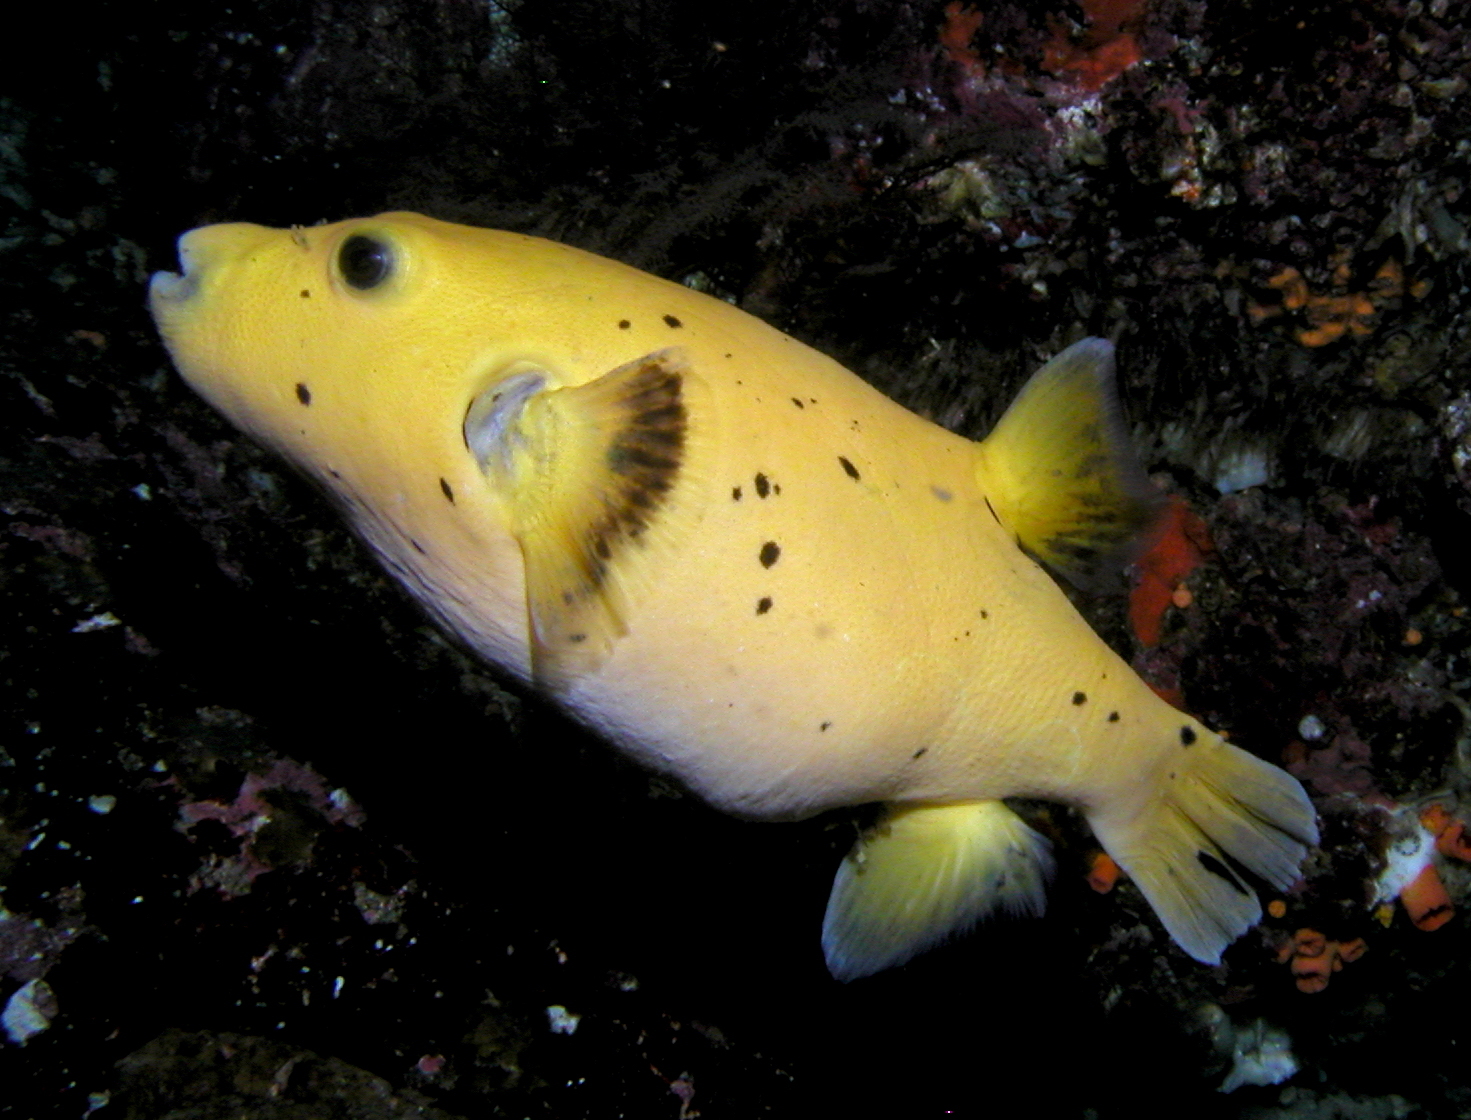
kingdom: Animalia
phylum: Chordata
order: Tetraodontiformes
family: Tetraodontidae
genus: Arothron
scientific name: Arothron meleagris
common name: Guinea-fowl pufferfish
